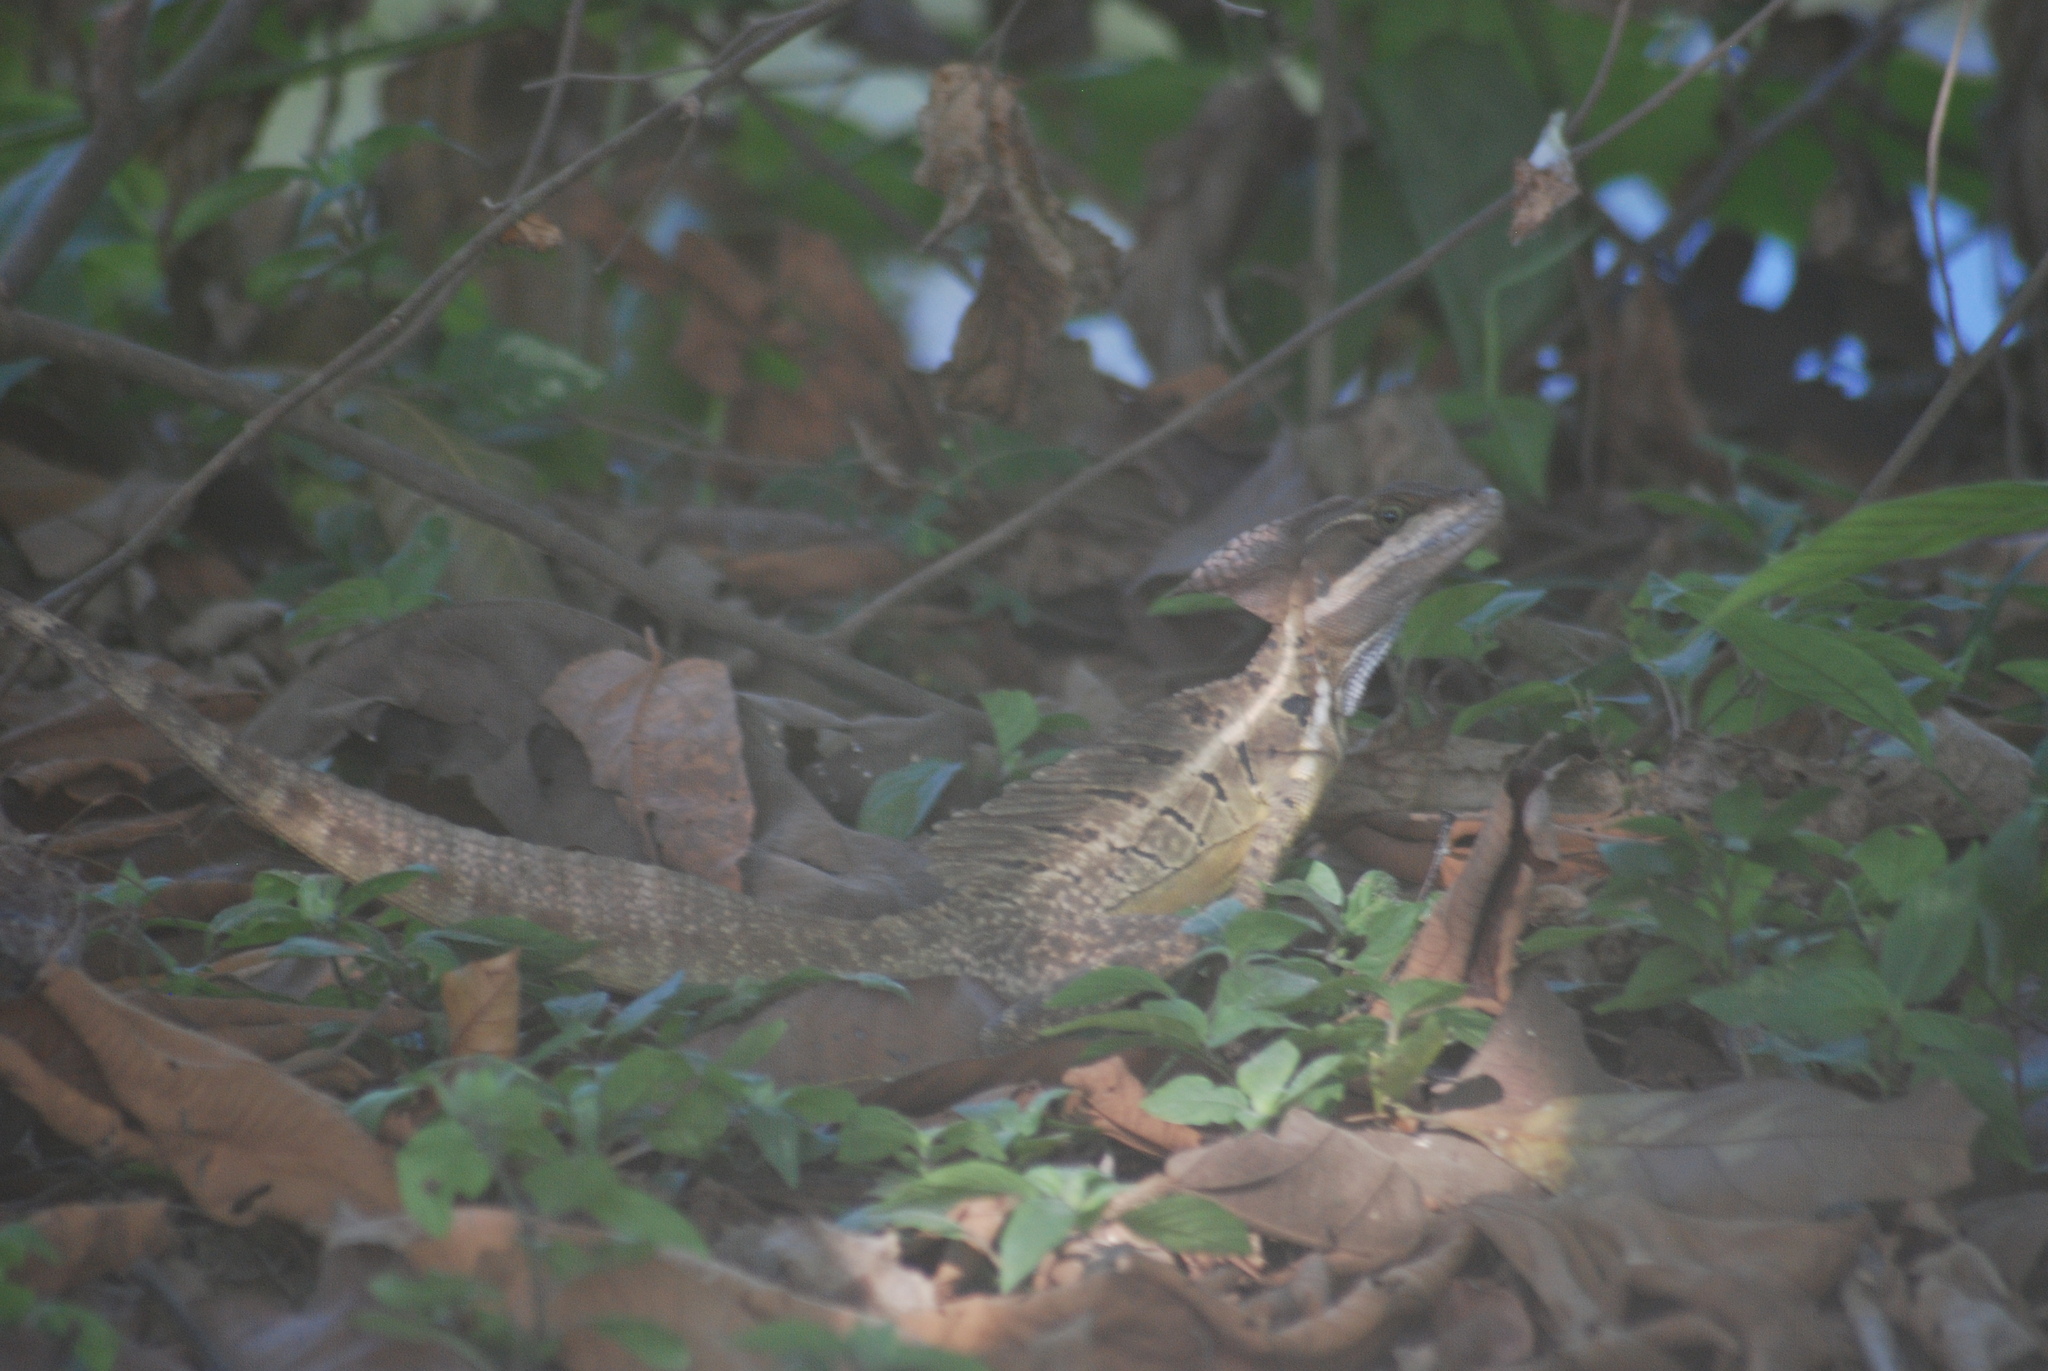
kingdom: Animalia
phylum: Chordata
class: Squamata
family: Corytophanidae
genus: Basiliscus
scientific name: Basiliscus basiliscus
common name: Common basilisk
